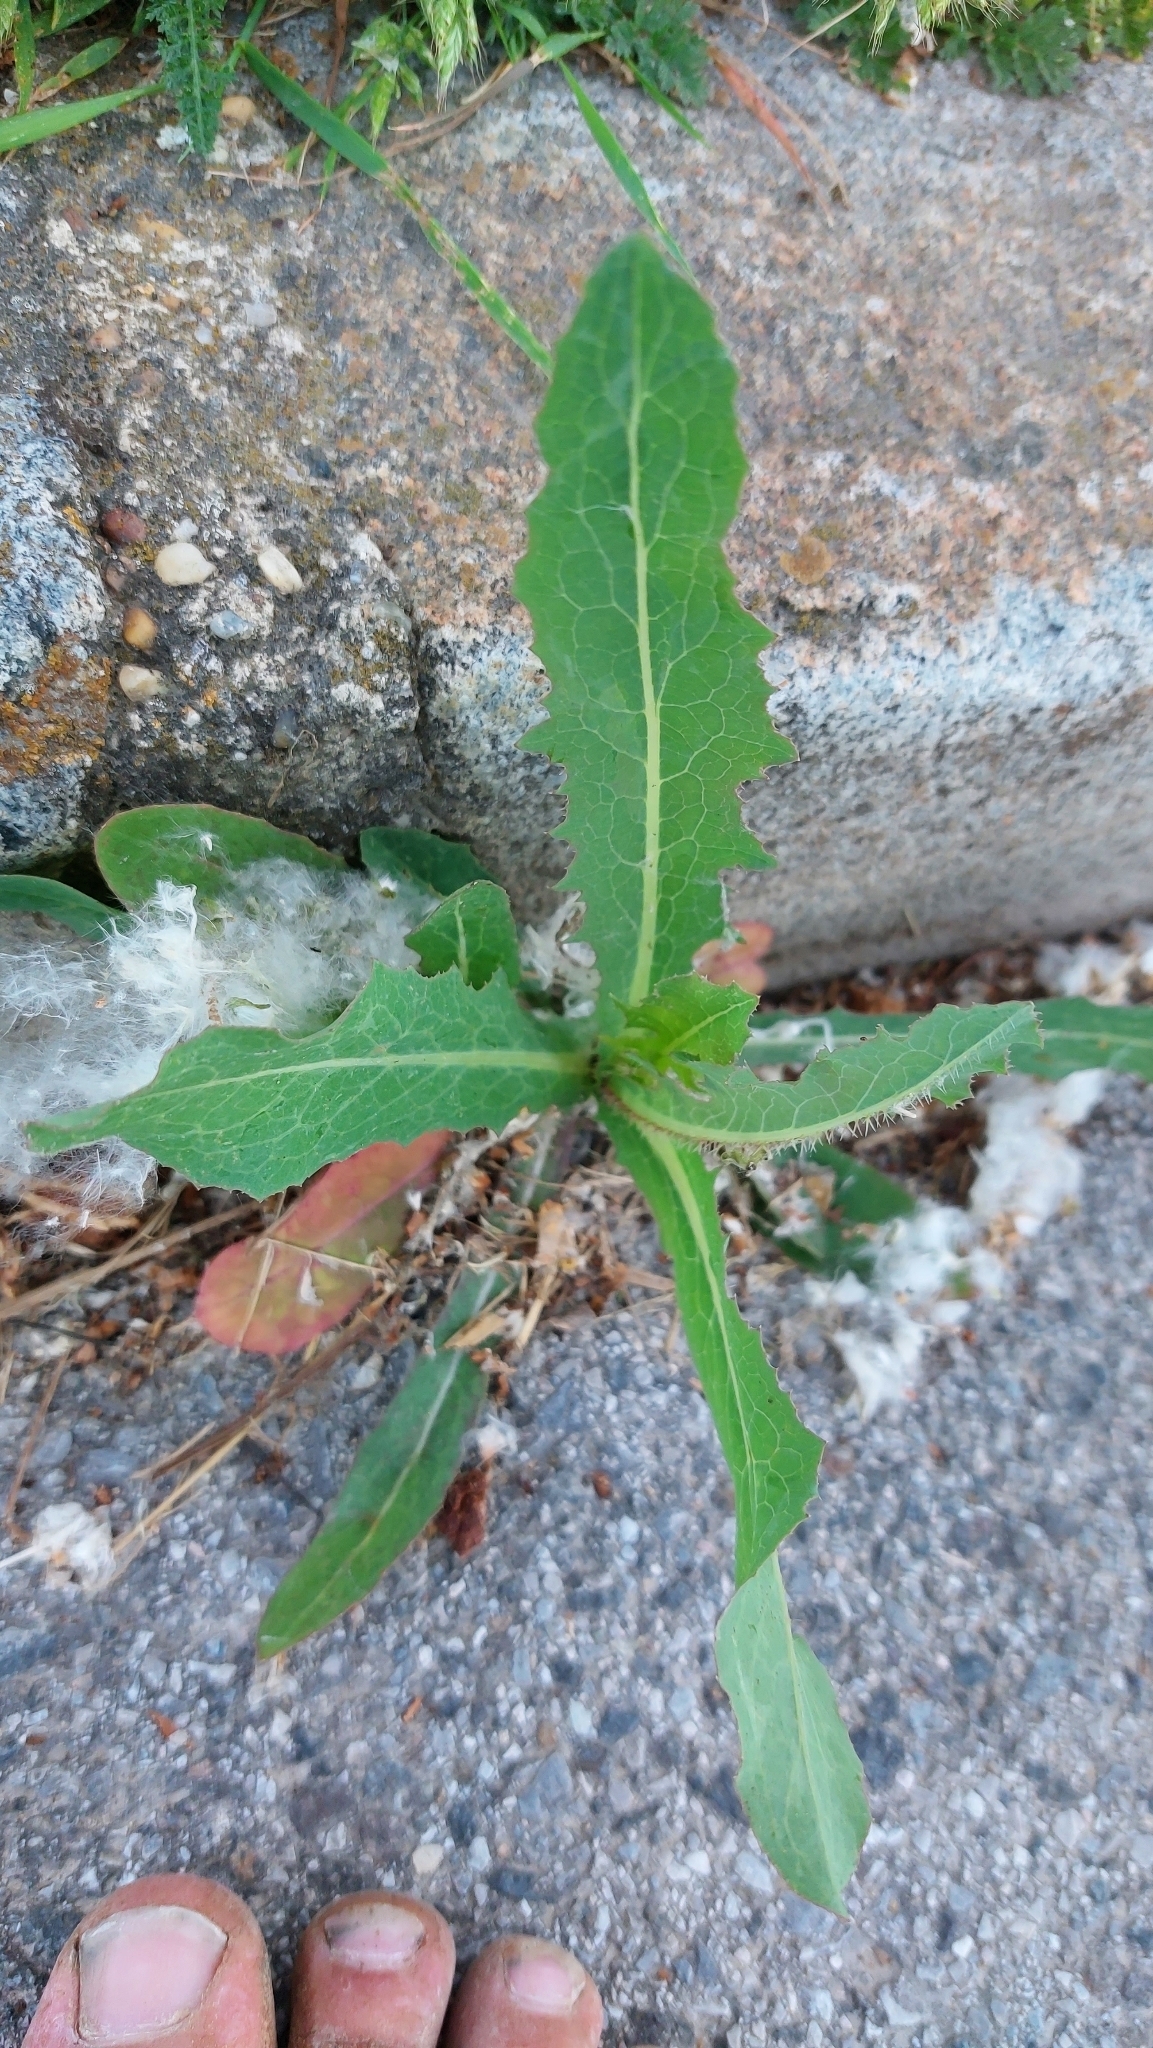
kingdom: Plantae
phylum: Tracheophyta
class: Magnoliopsida
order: Asterales
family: Asteraceae
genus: Lactuca
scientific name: Lactuca serriola
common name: Prickly lettuce
